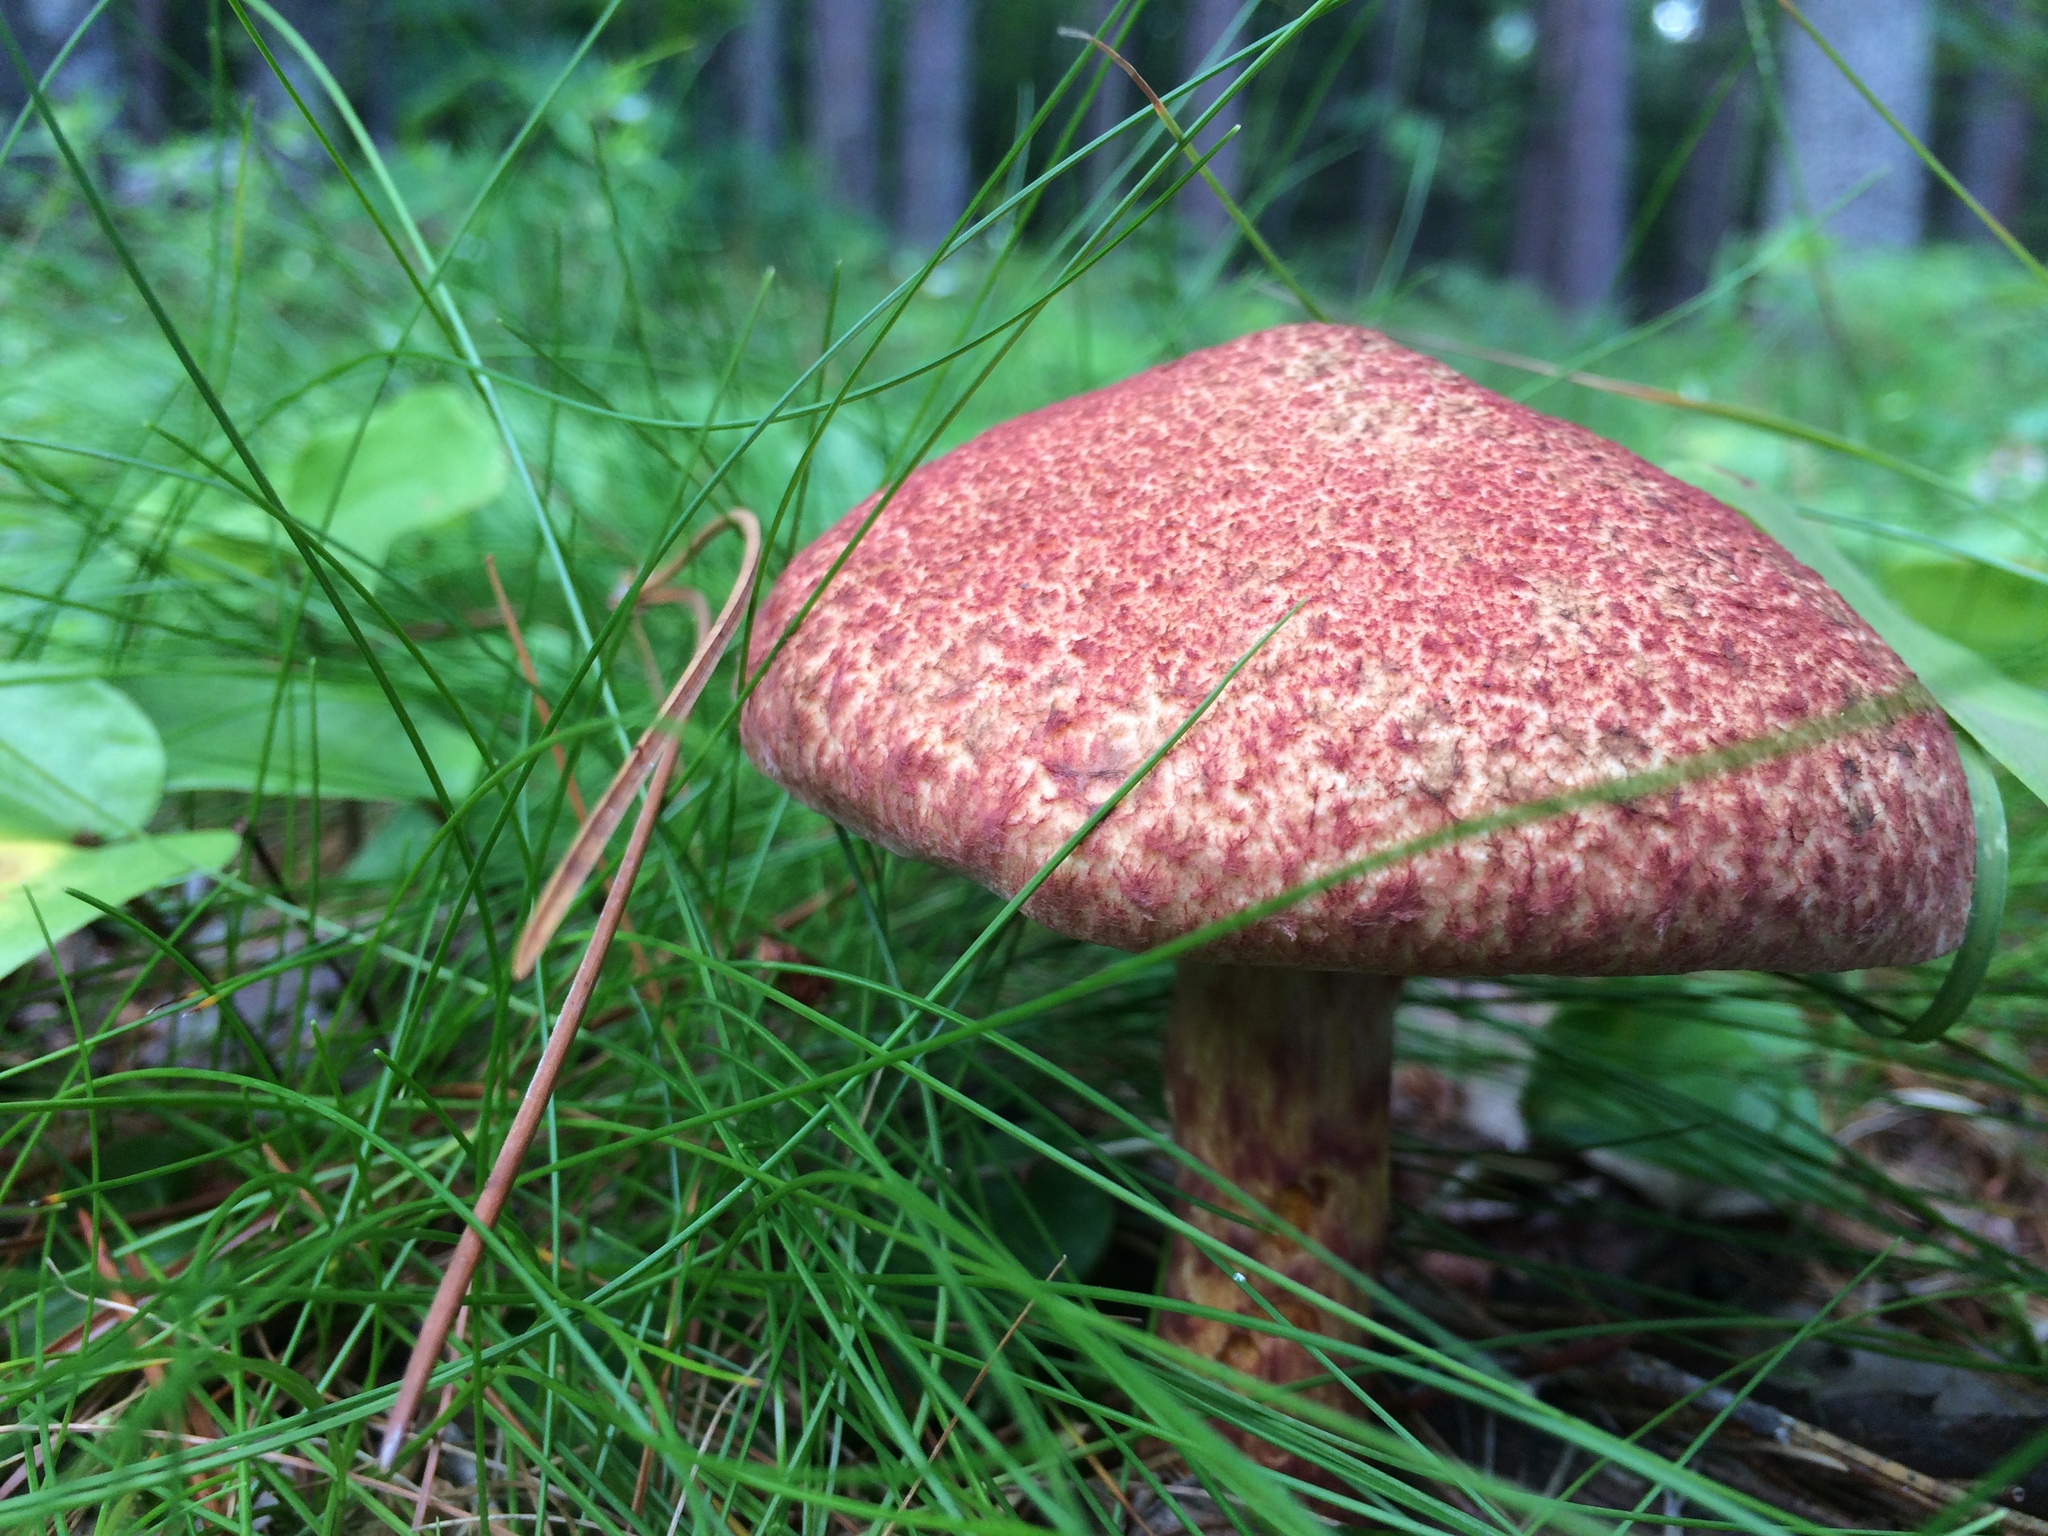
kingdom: Fungi
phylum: Basidiomycota
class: Agaricomycetes
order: Boletales
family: Suillaceae
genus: Suillus
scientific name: Suillus spraguei
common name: Painted suillus
